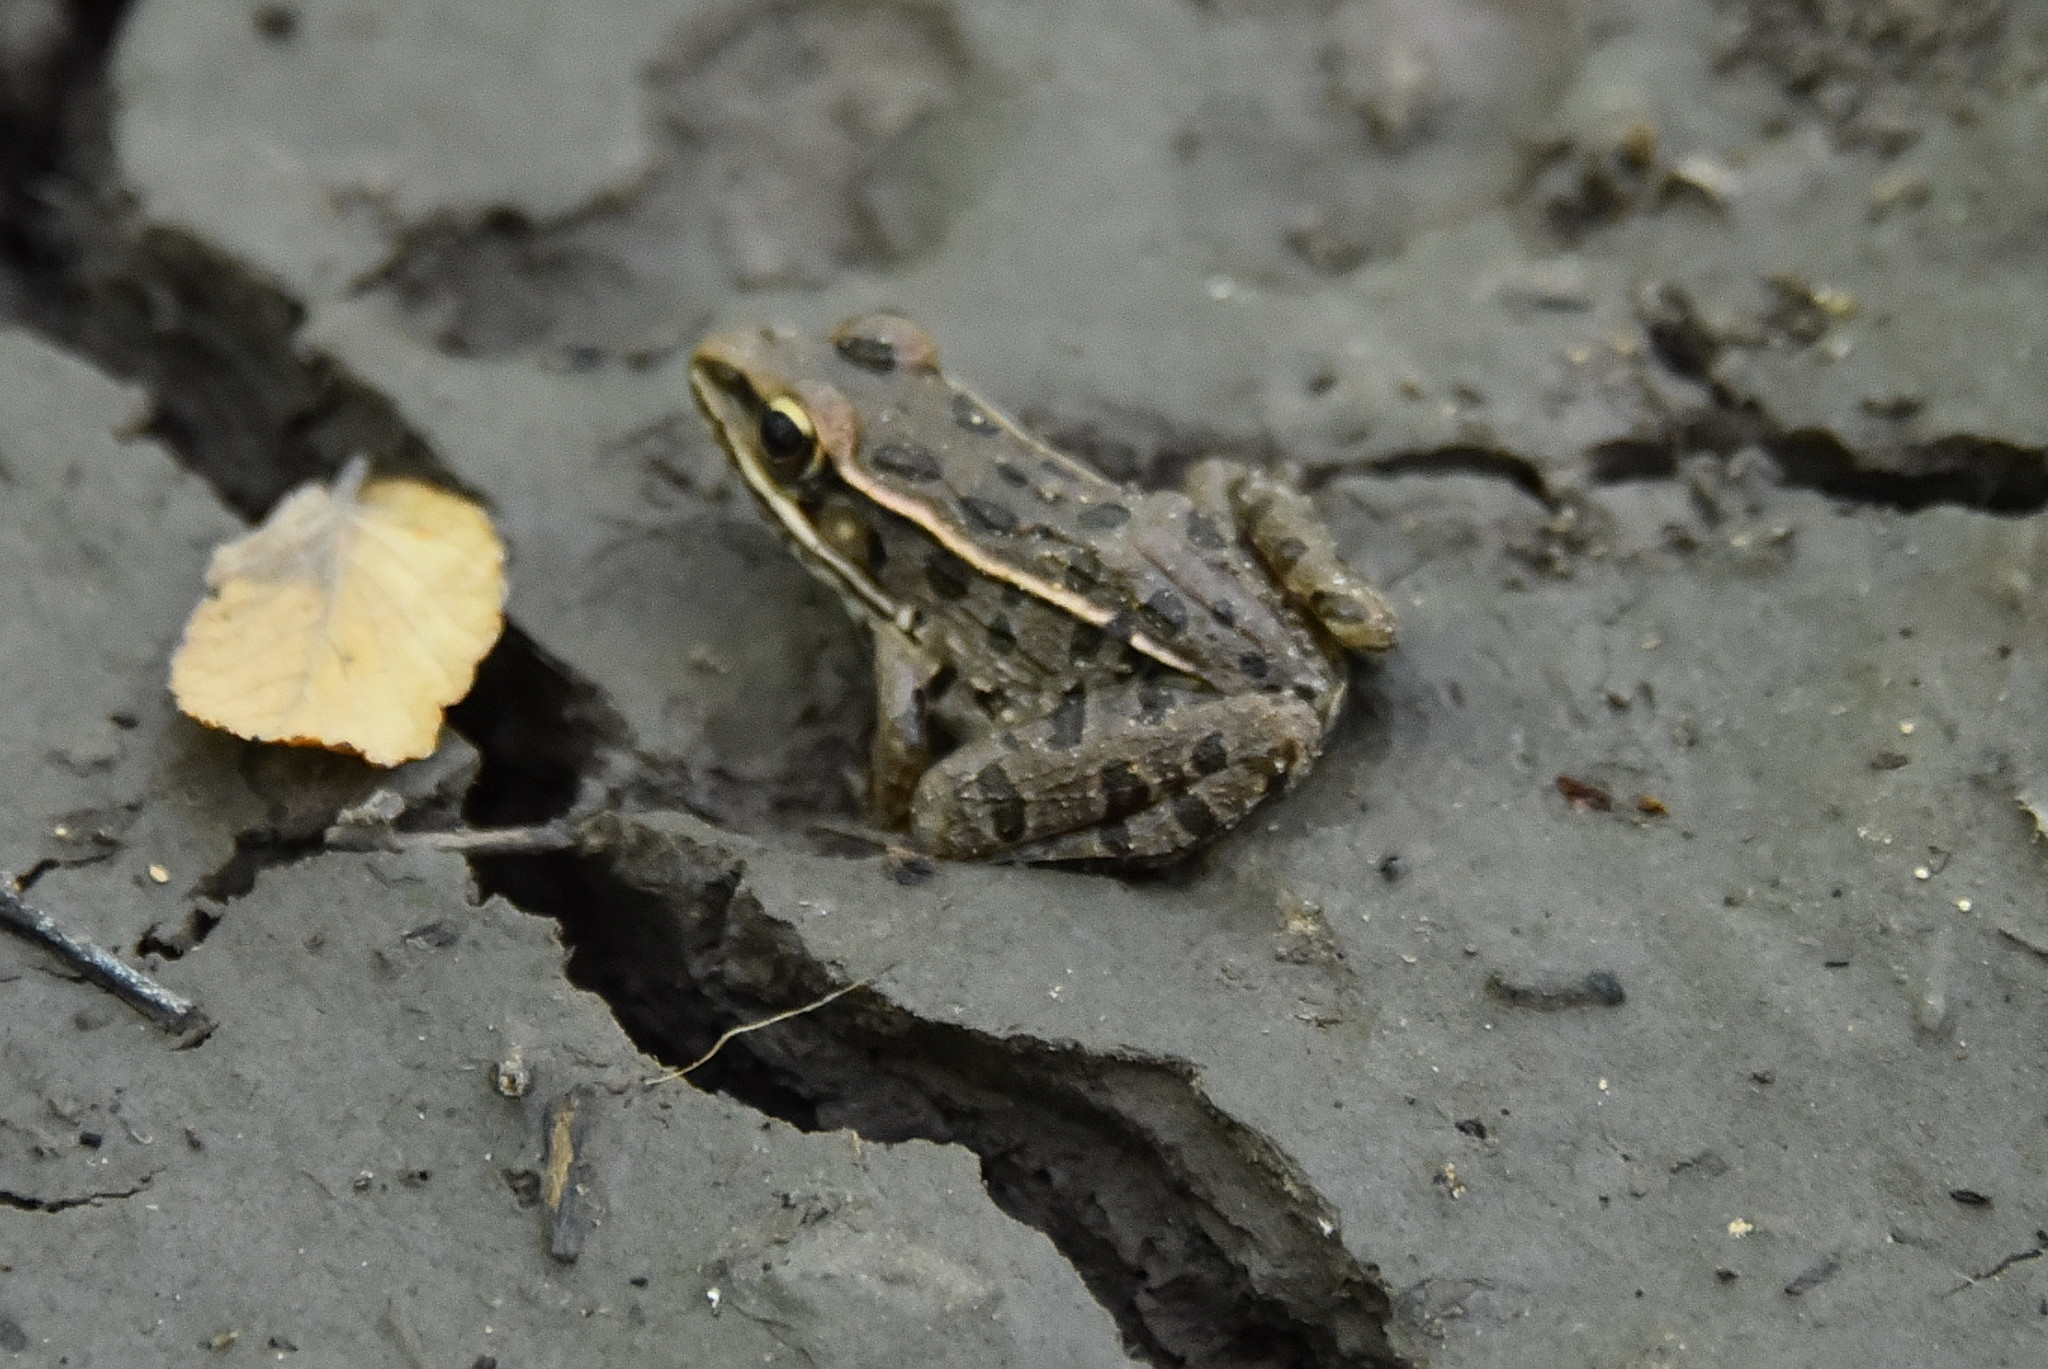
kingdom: Animalia
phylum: Chordata
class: Amphibia
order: Anura
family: Ranidae
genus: Lithobates
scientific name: Lithobates sphenocephalus
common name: Southern leopard frog
